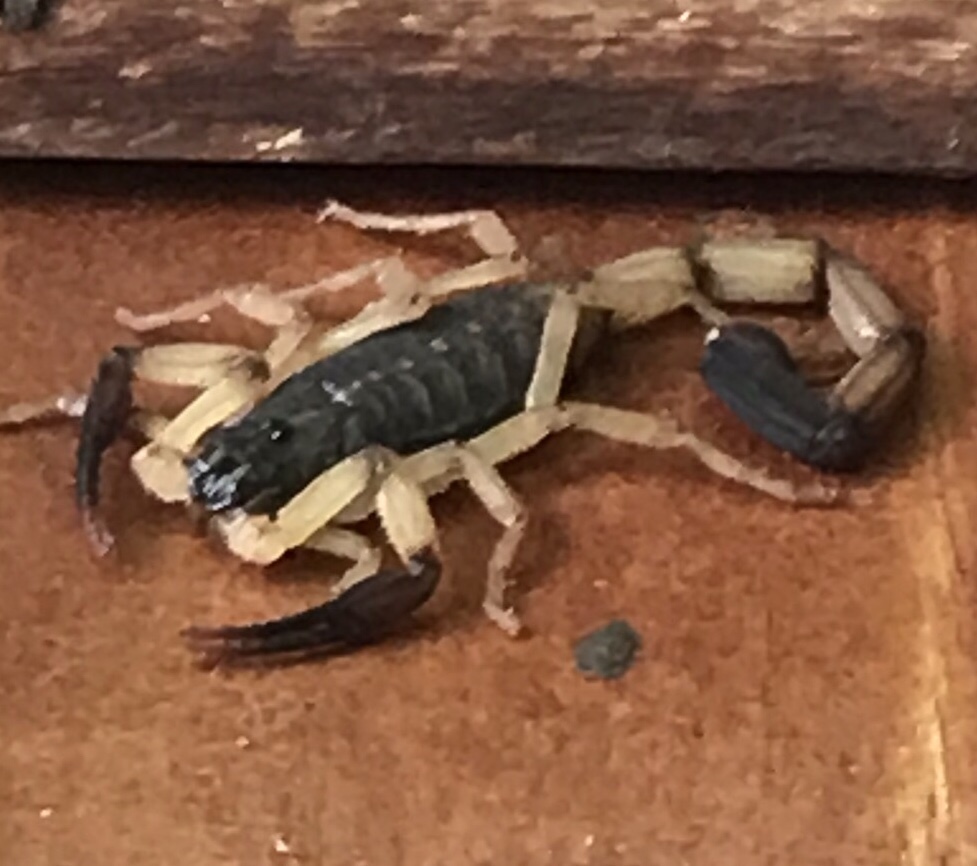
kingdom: Animalia
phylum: Arthropoda
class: Arachnida
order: Scorpiones
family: Buthidae
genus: Centruroides
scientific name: Centruroides bicolor
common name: Scorpions
